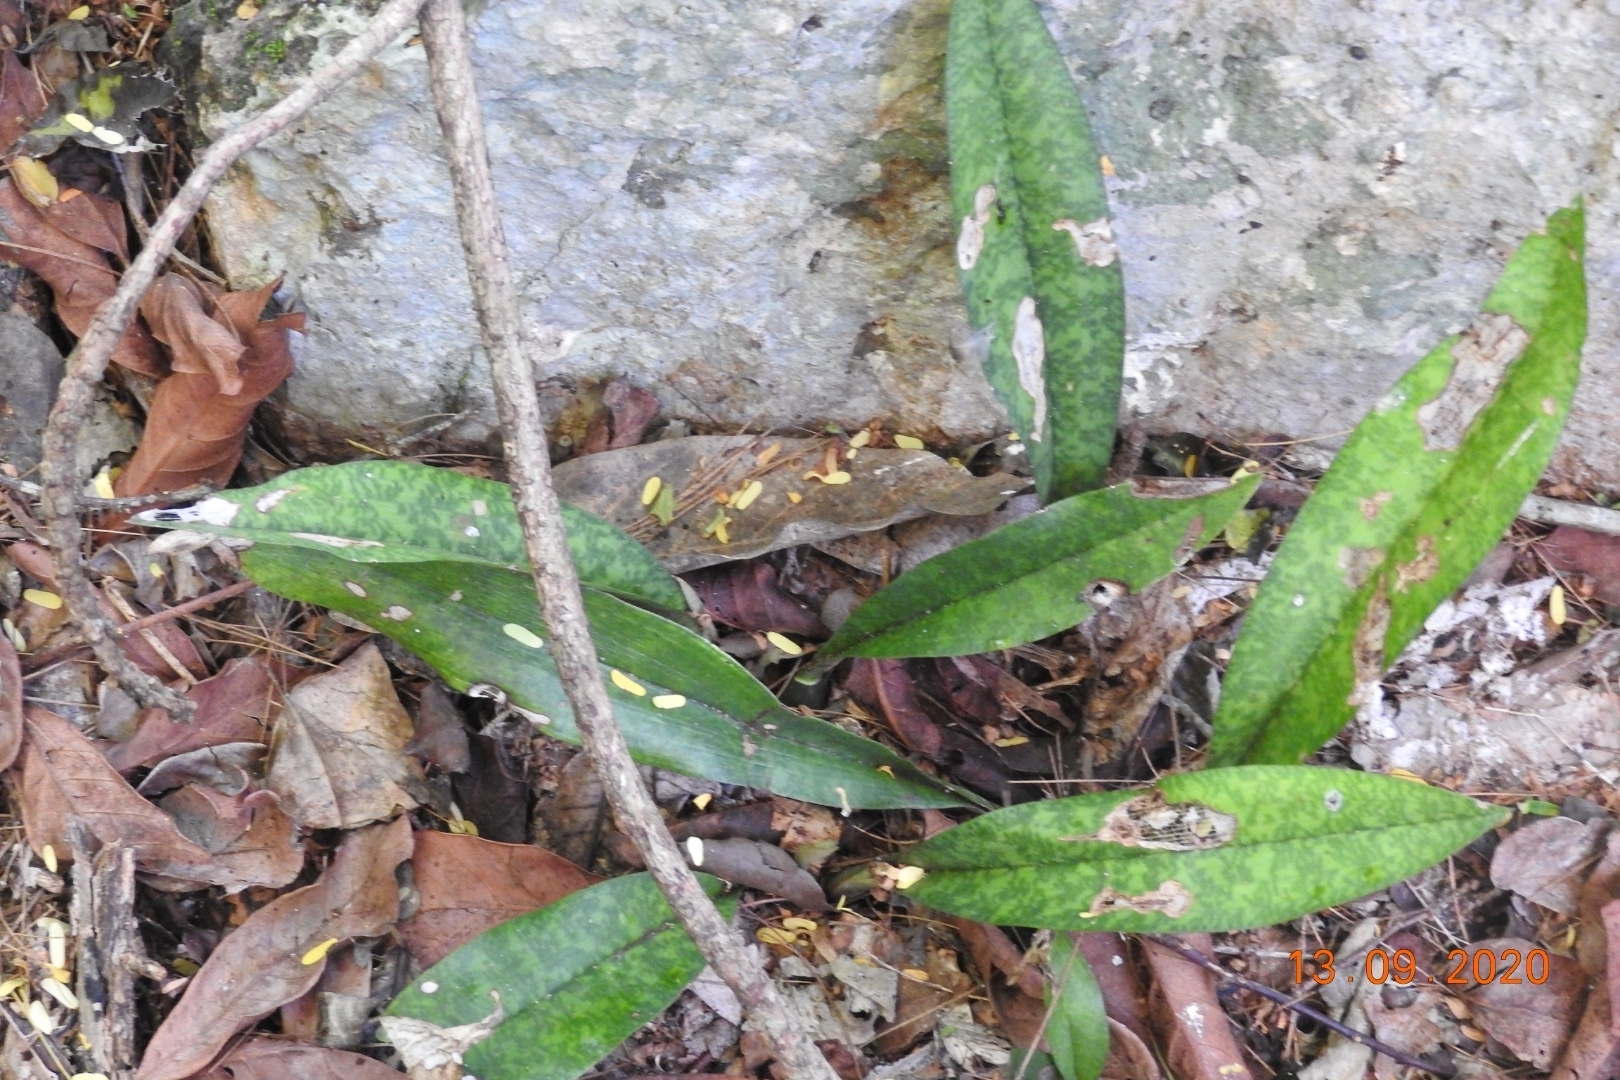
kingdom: Plantae
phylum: Tracheophyta
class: Liliopsida
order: Asparagales
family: Orchidaceae
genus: Eulophia
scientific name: Eulophia maculata
